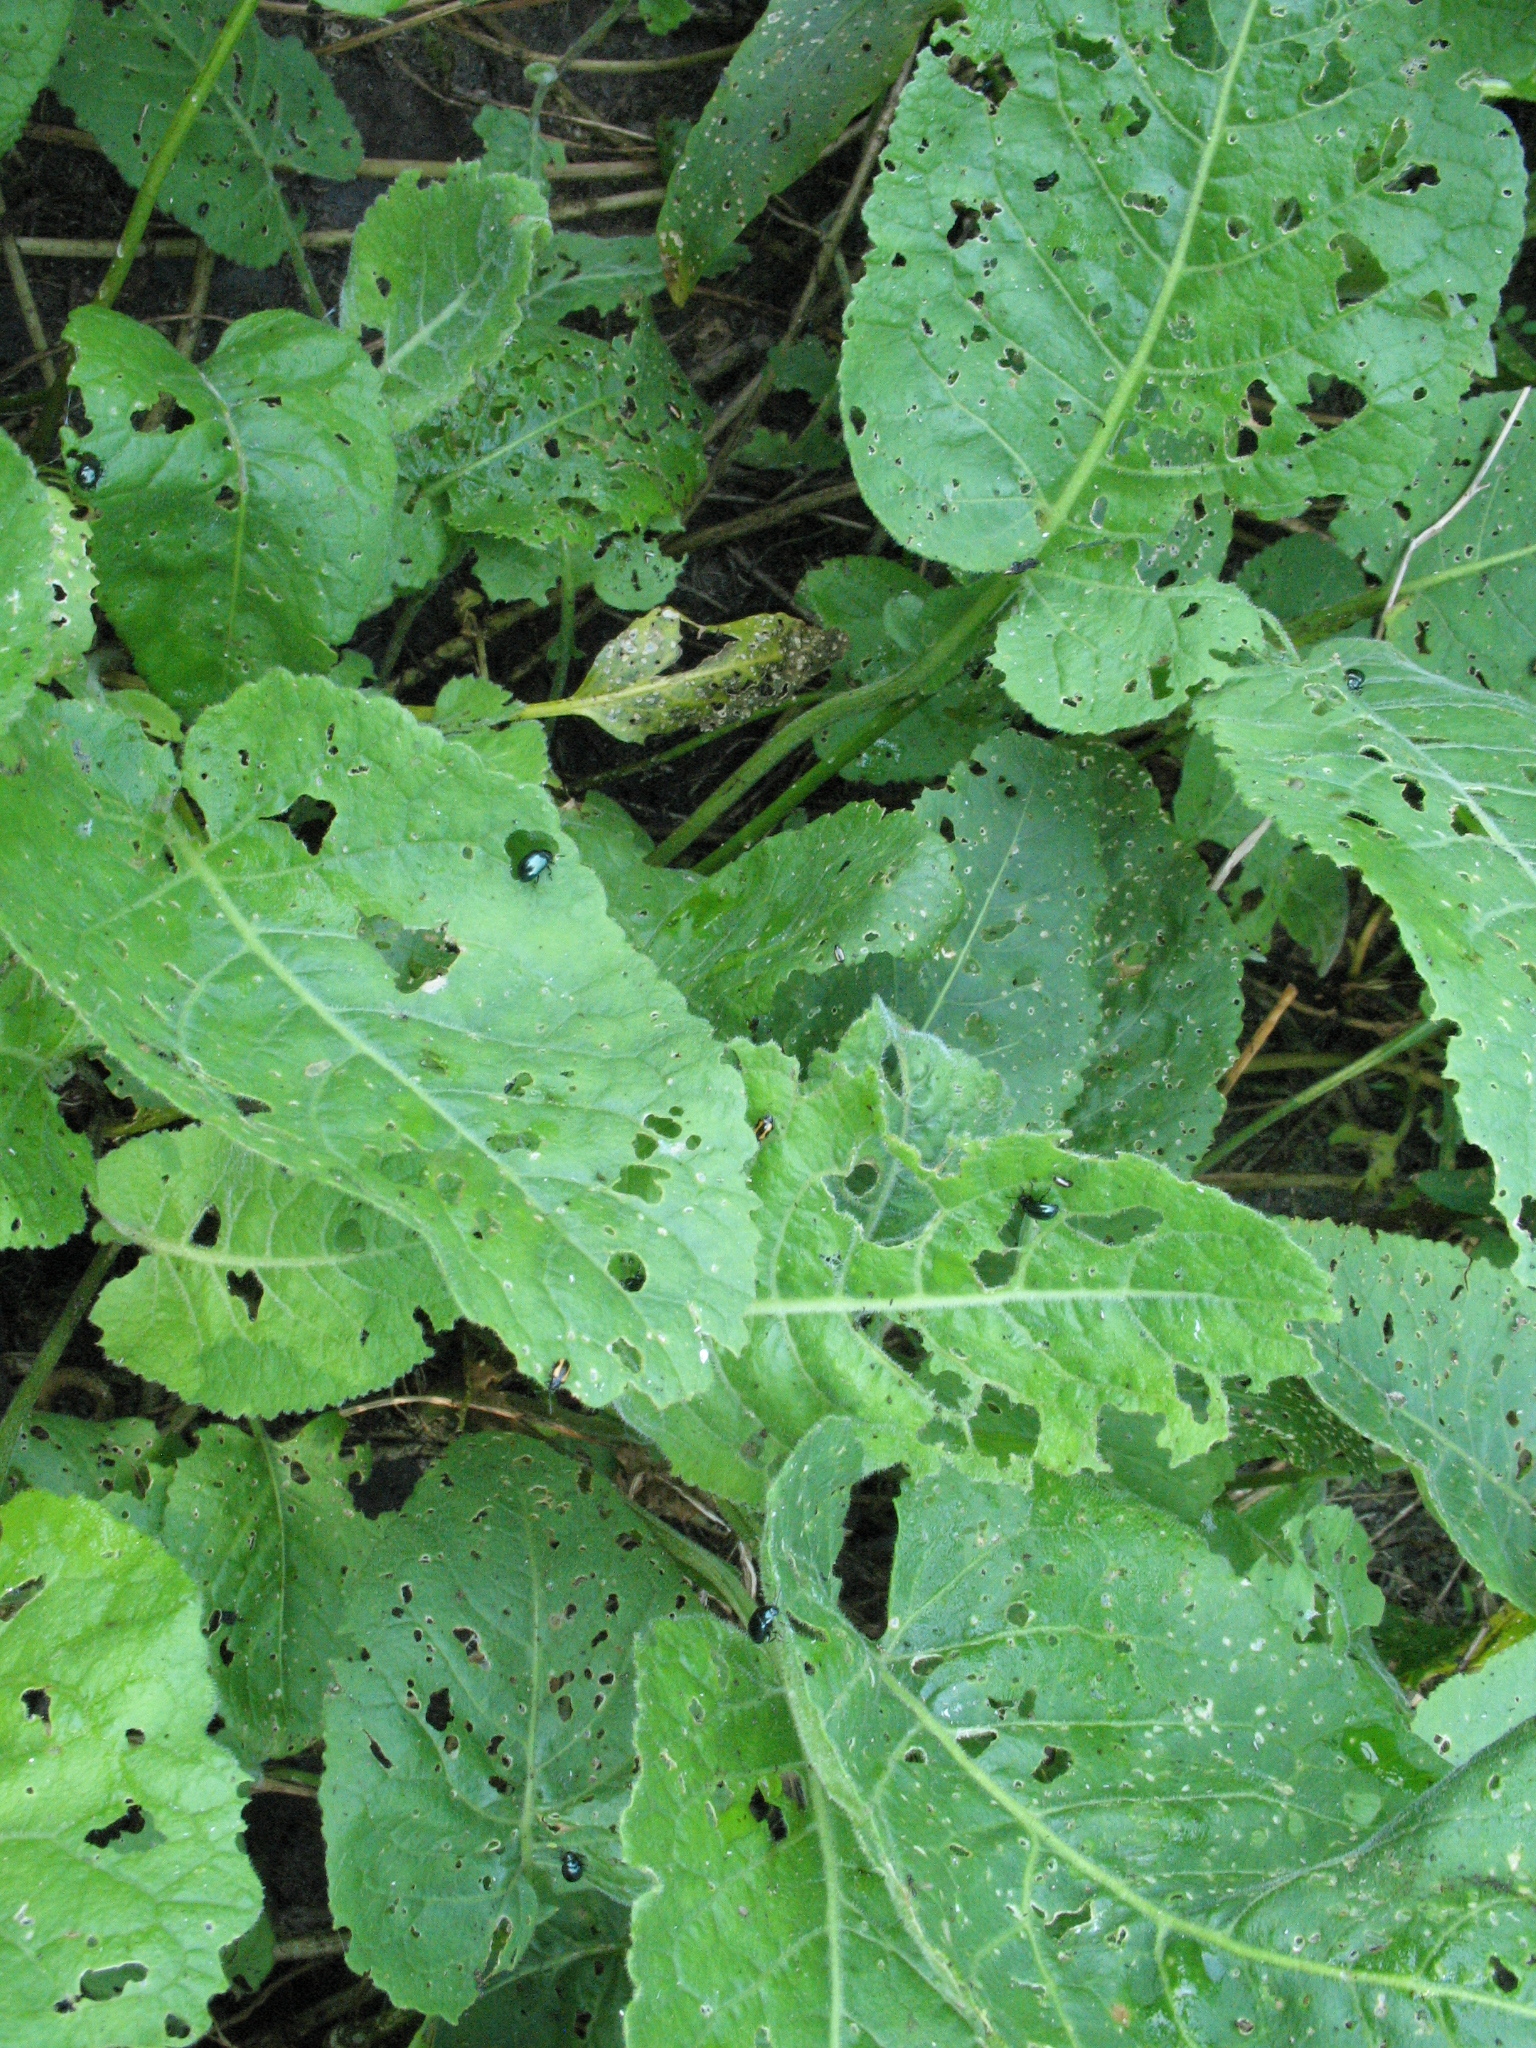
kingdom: Plantae
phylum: Tracheophyta
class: Magnoliopsida
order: Brassicales
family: Brassicaceae
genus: Rorippa
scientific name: Rorippa amphibia
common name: Great yellow-cress
